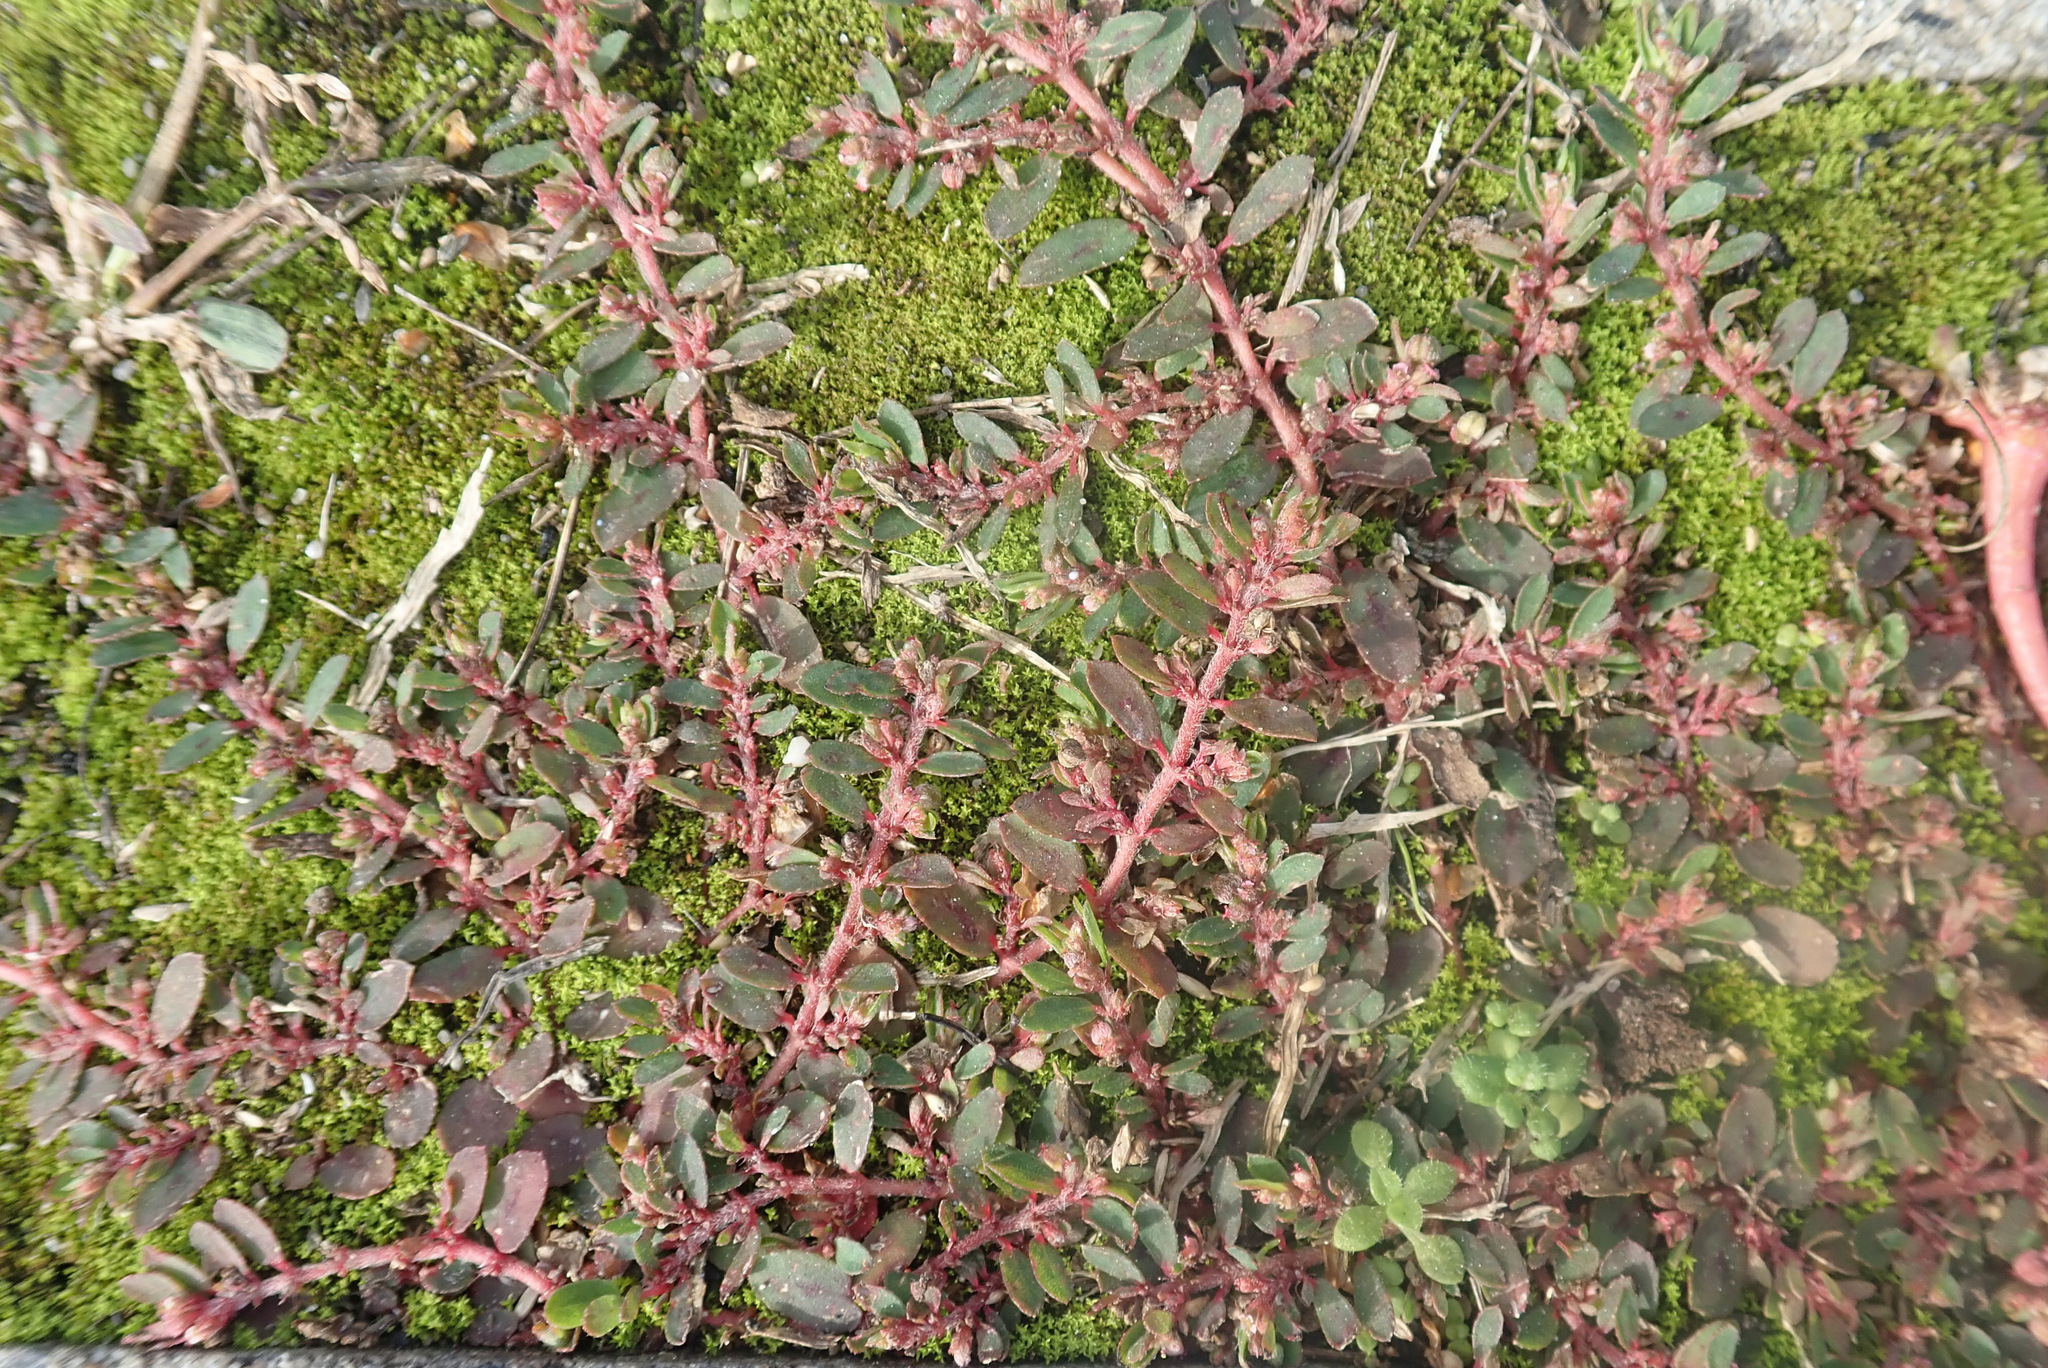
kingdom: Plantae
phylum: Tracheophyta
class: Magnoliopsida
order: Malpighiales
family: Euphorbiaceae
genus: Euphorbia
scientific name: Euphorbia maculata
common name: Spotted spurge
